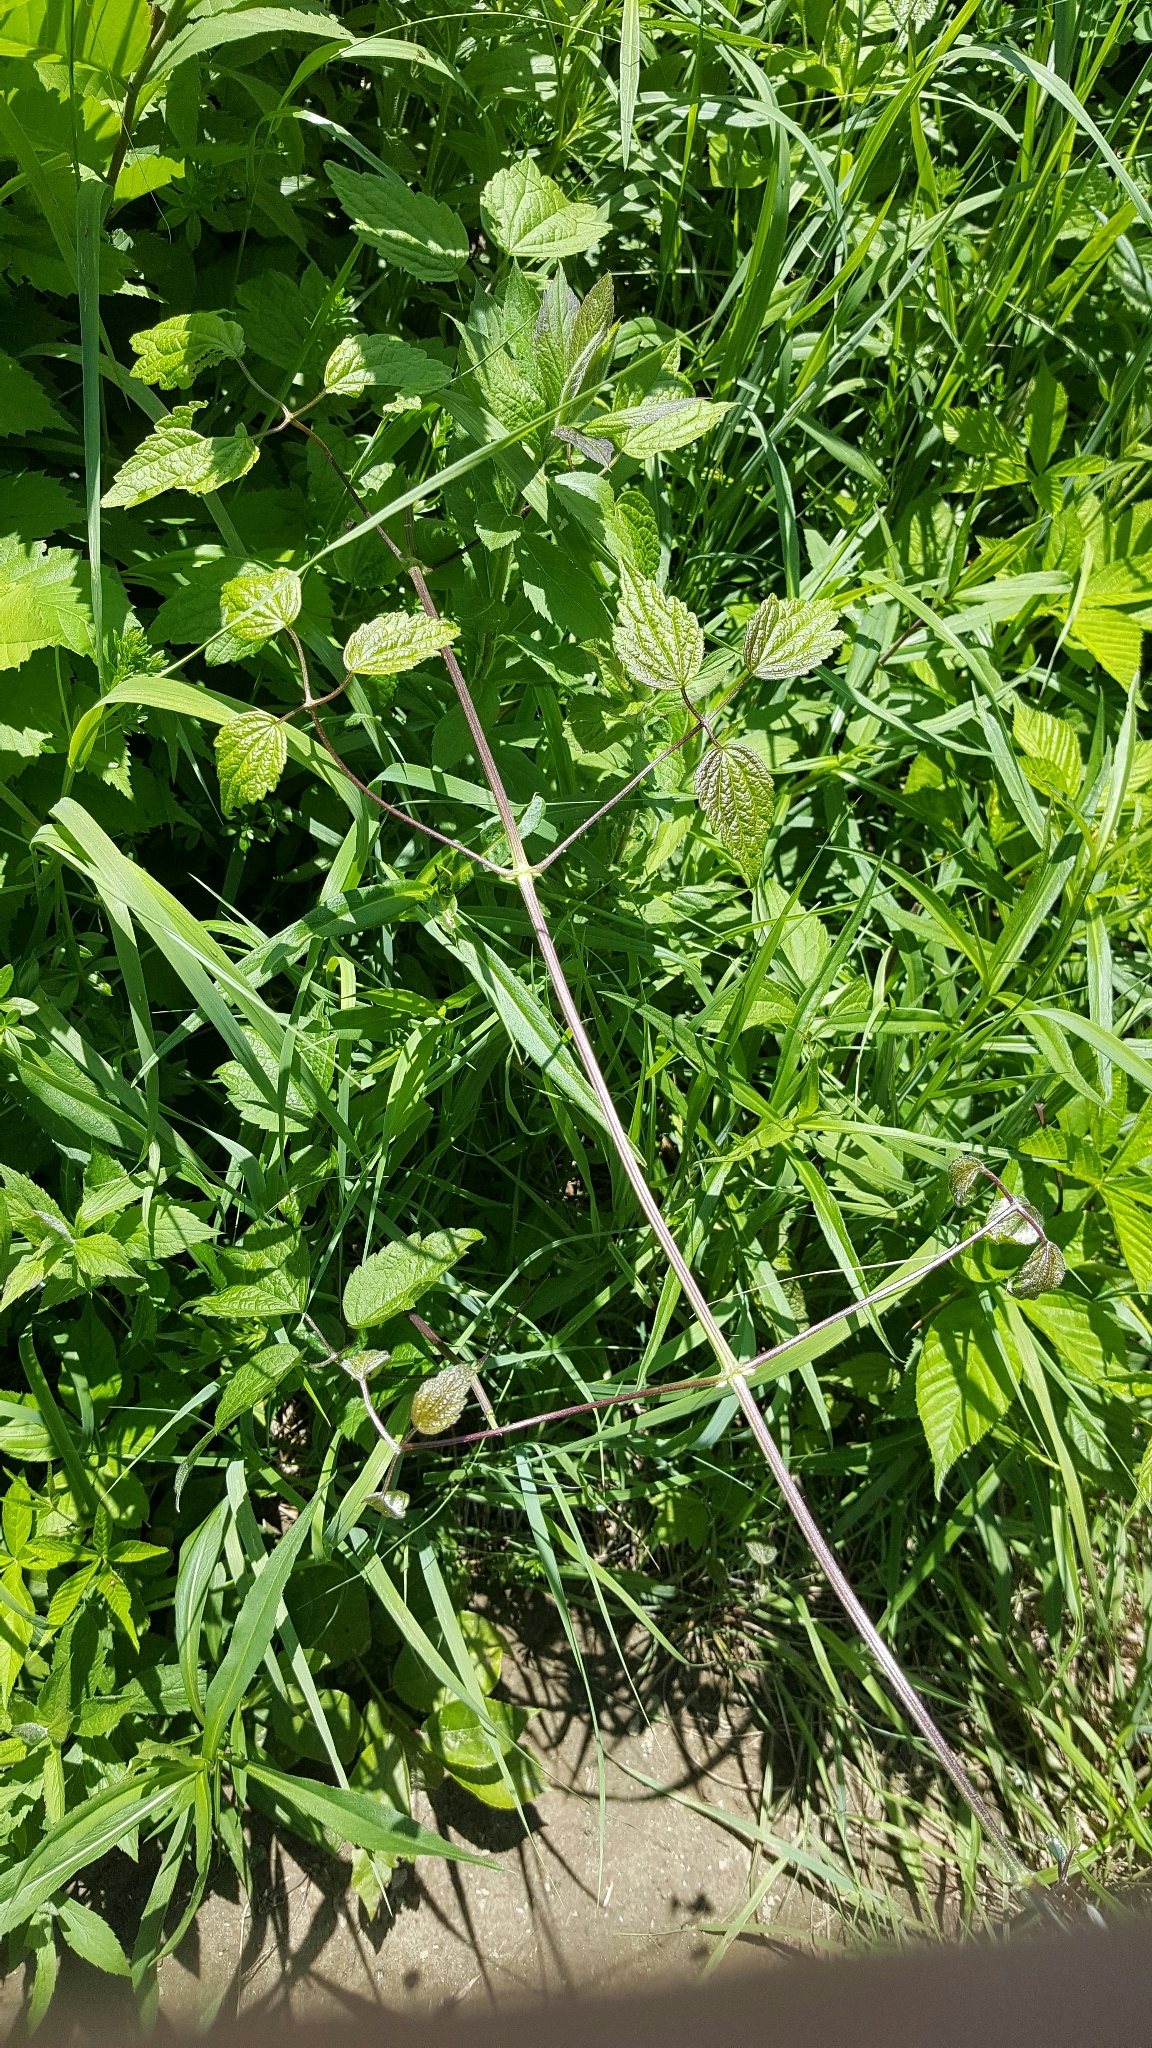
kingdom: Plantae
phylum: Tracheophyta
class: Magnoliopsida
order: Ranunculales
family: Ranunculaceae
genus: Clematis
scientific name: Clematis virginiana
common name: Virgin's-bower
